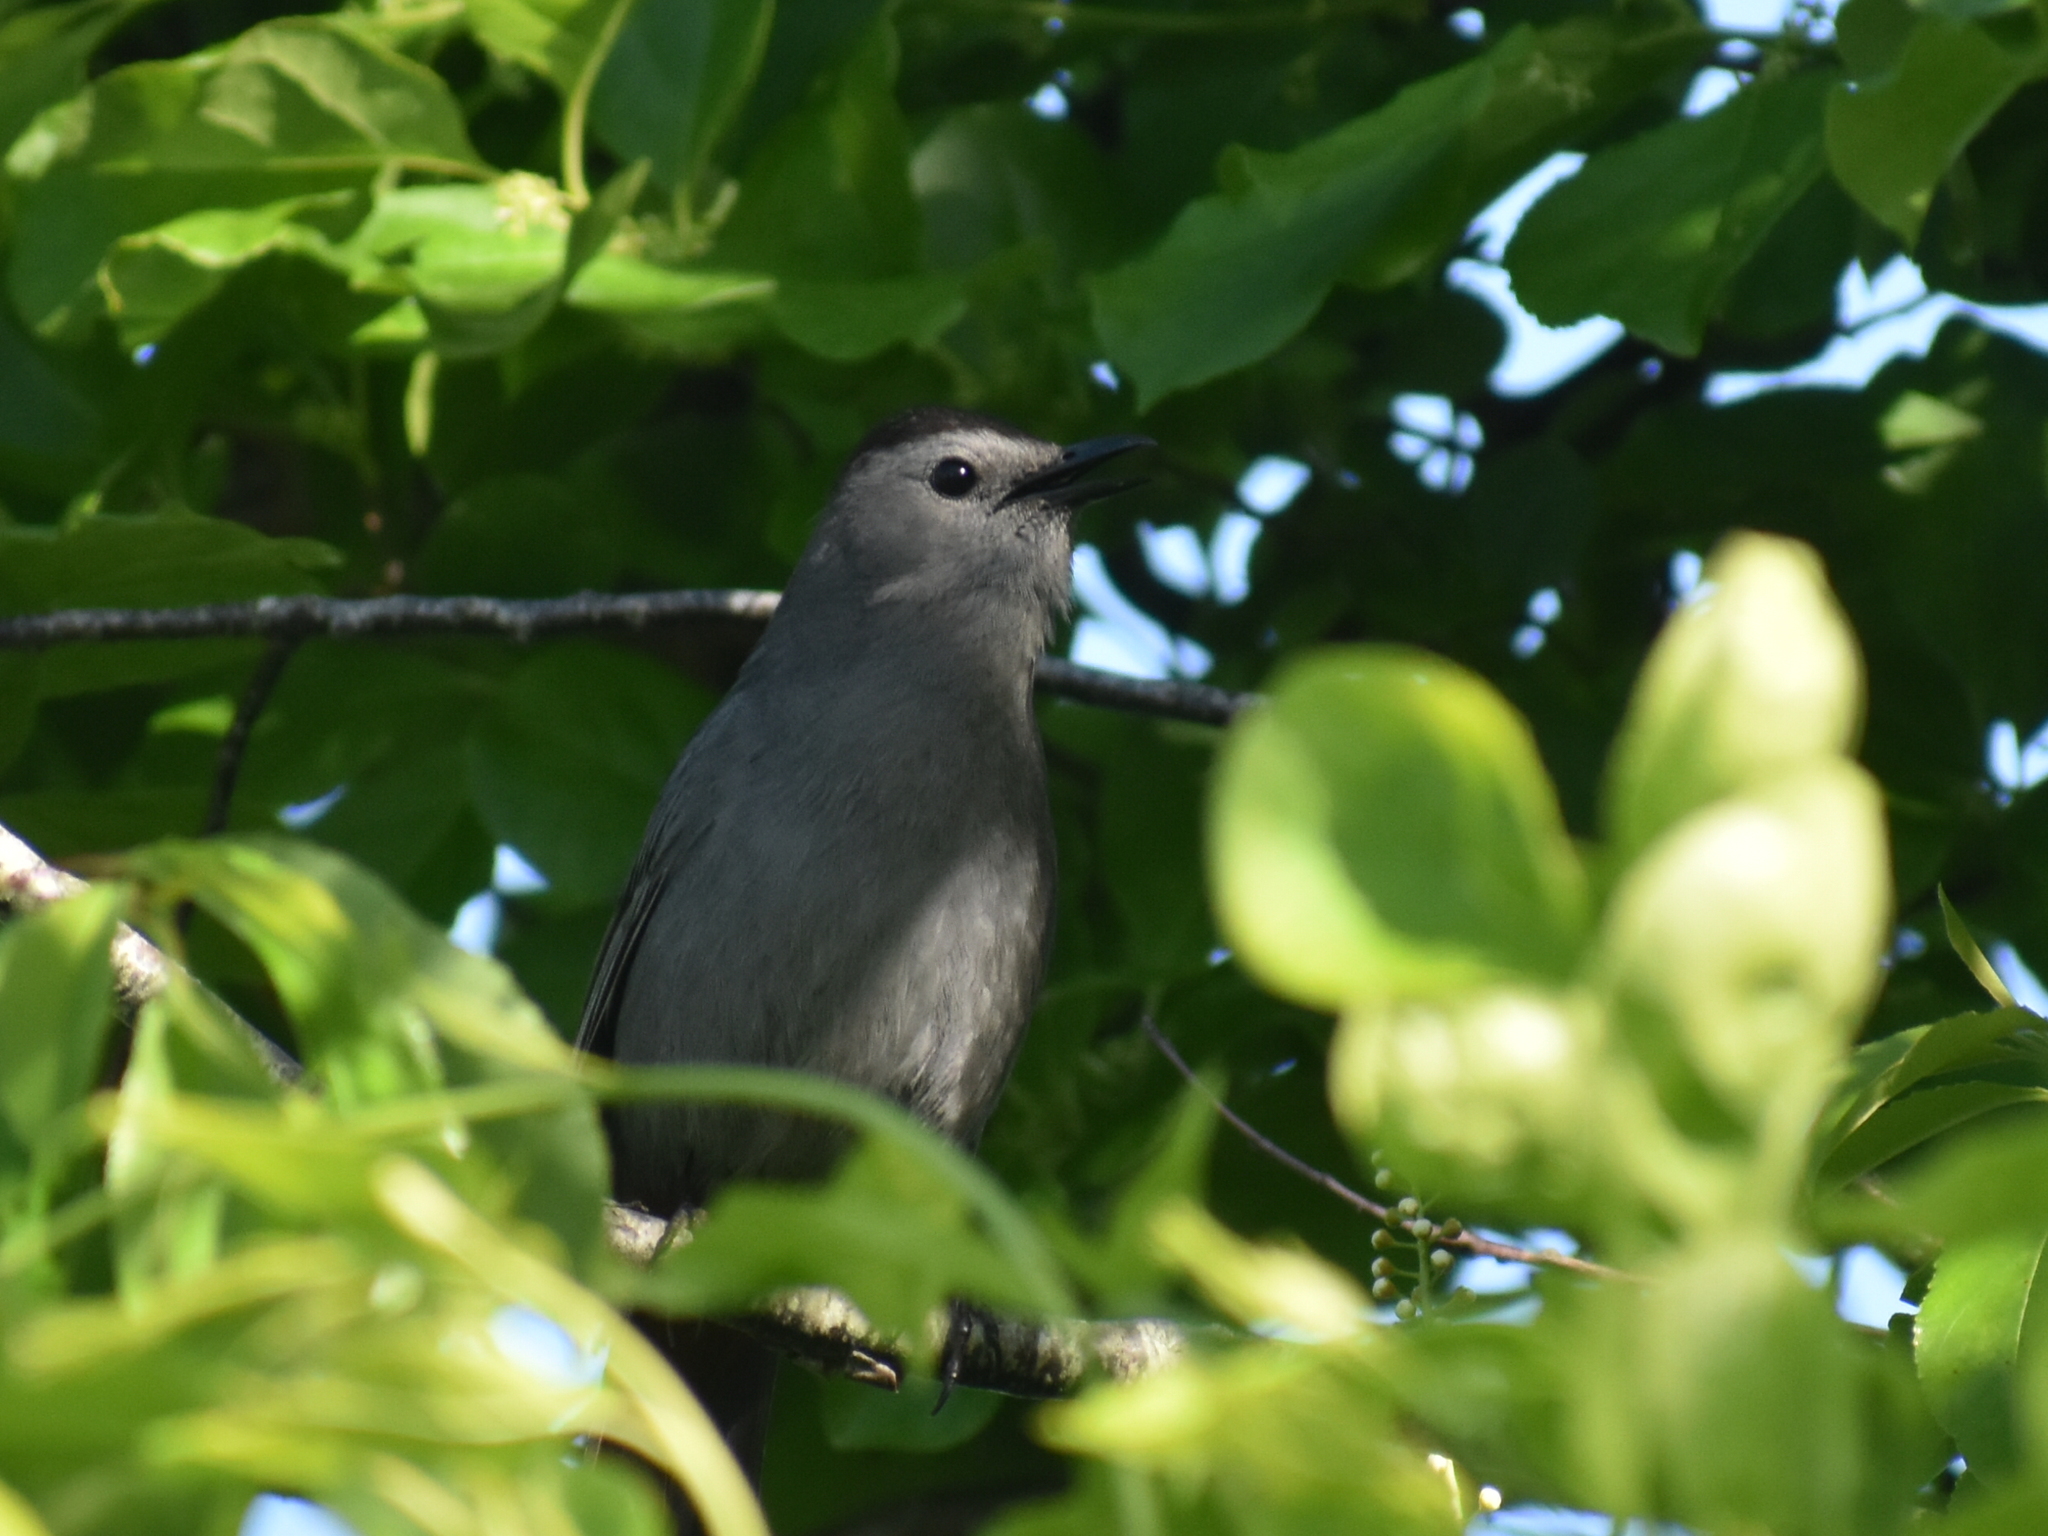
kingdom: Animalia
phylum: Chordata
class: Aves
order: Passeriformes
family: Mimidae
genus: Dumetella
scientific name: Dumetella carolinensis
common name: Gray catbird
